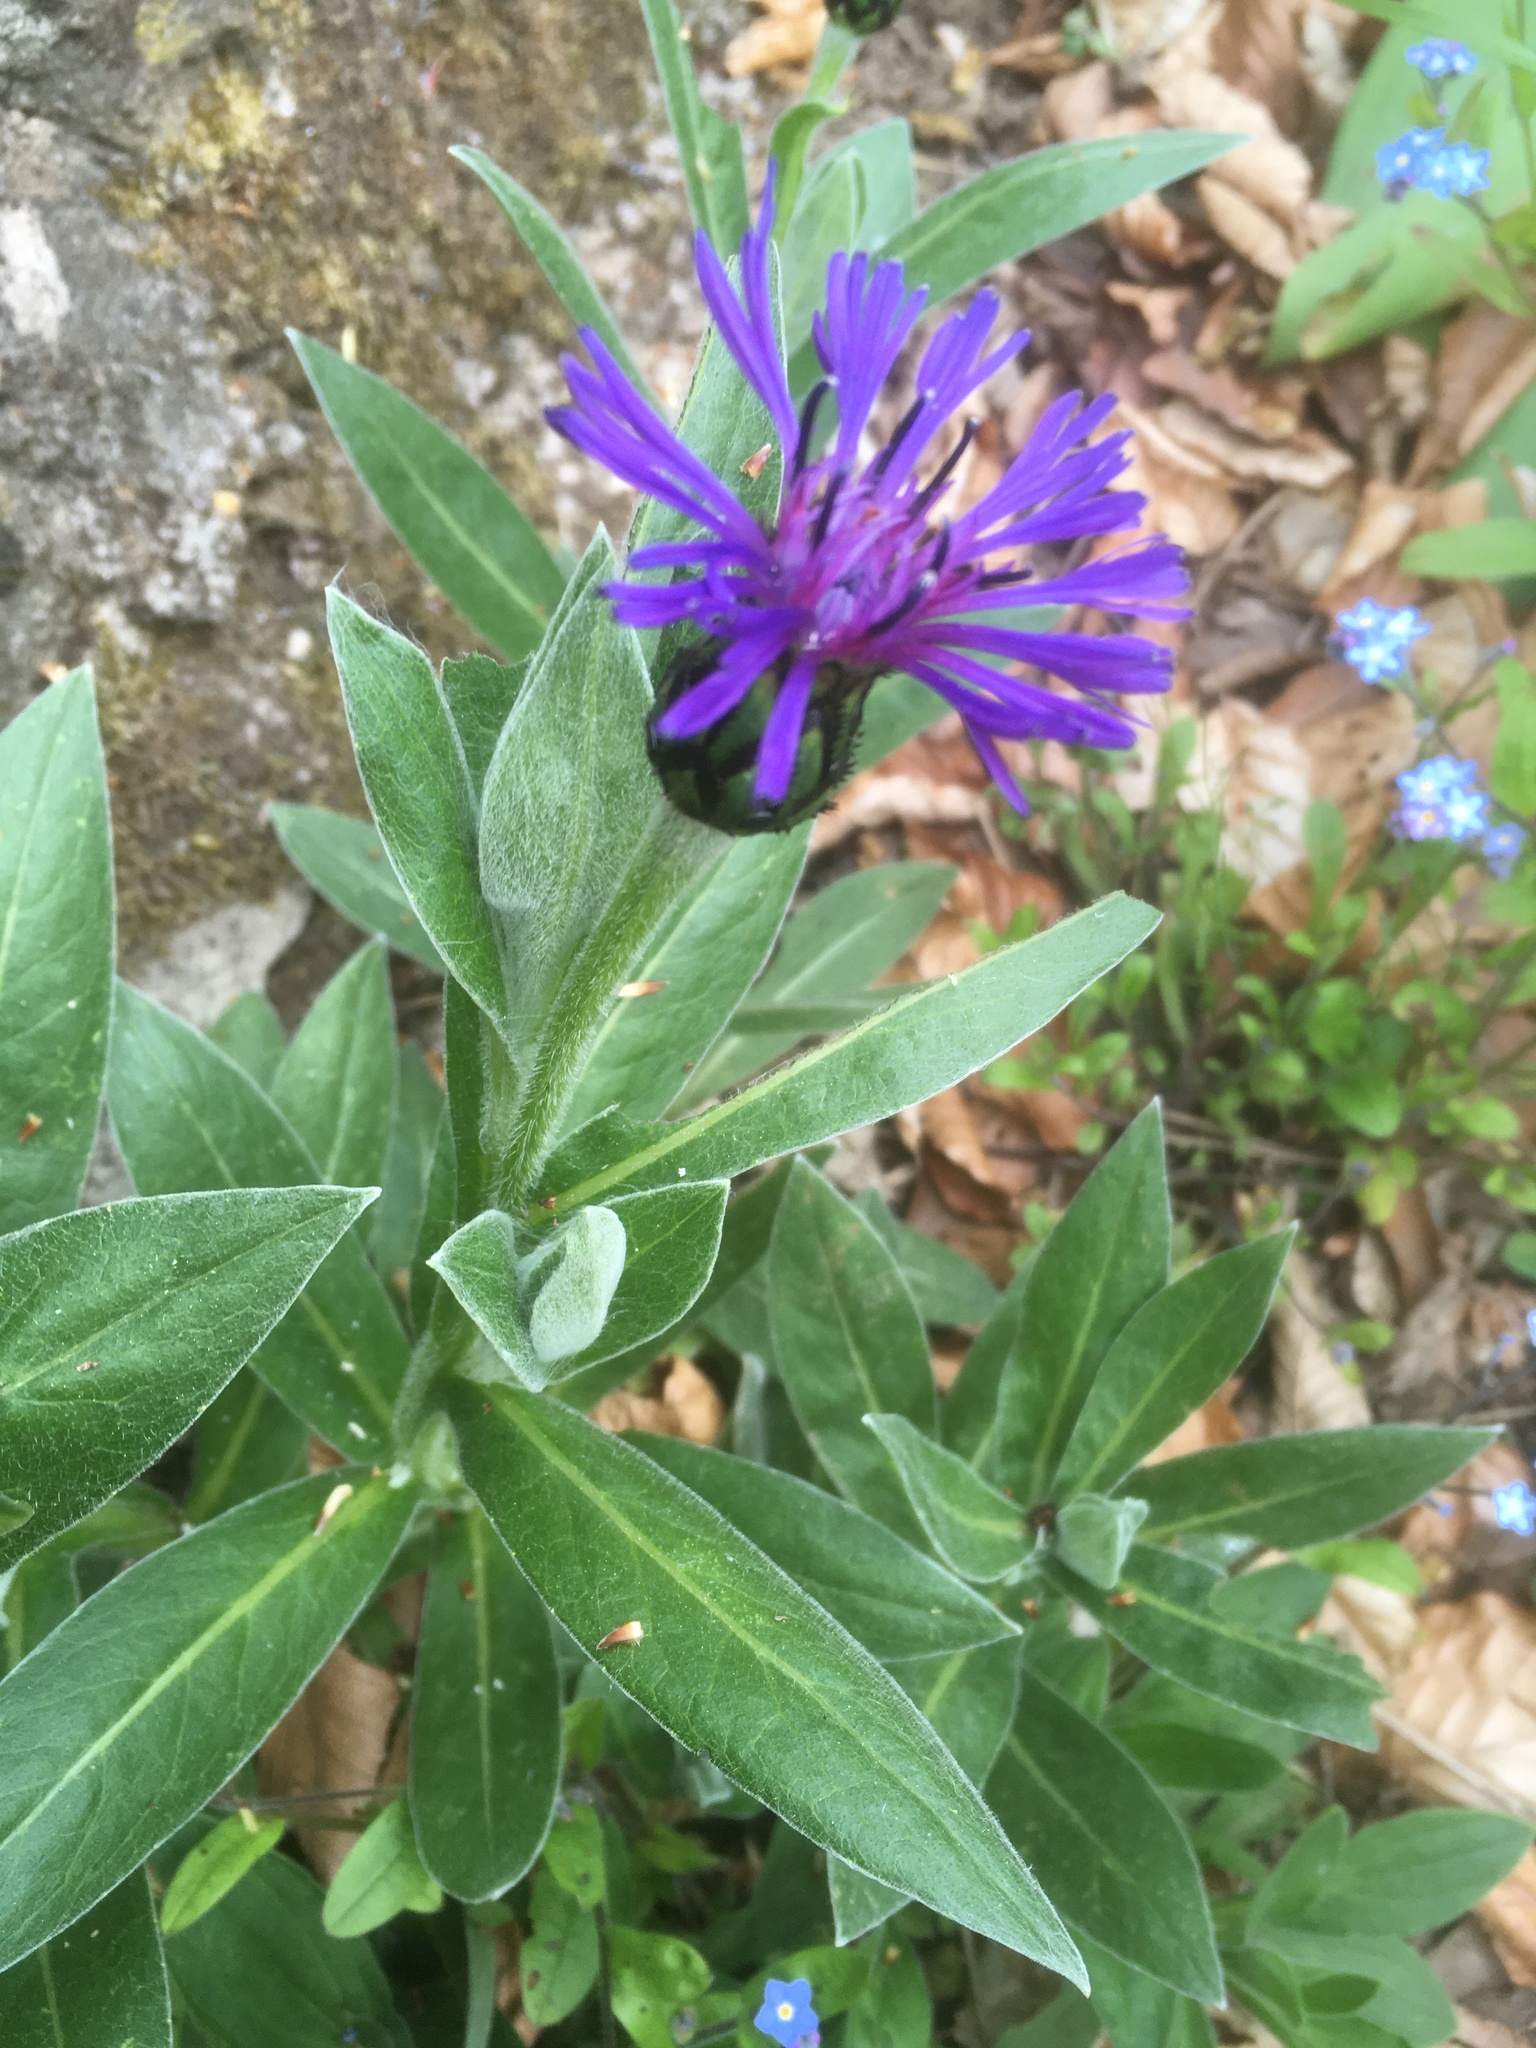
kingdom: Plantae
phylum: Tracheophyta
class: Magnoliopsida
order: Asterales
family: Asteraceae
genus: Centaurea
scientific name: Centaurea montana
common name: Perennial cornflower
